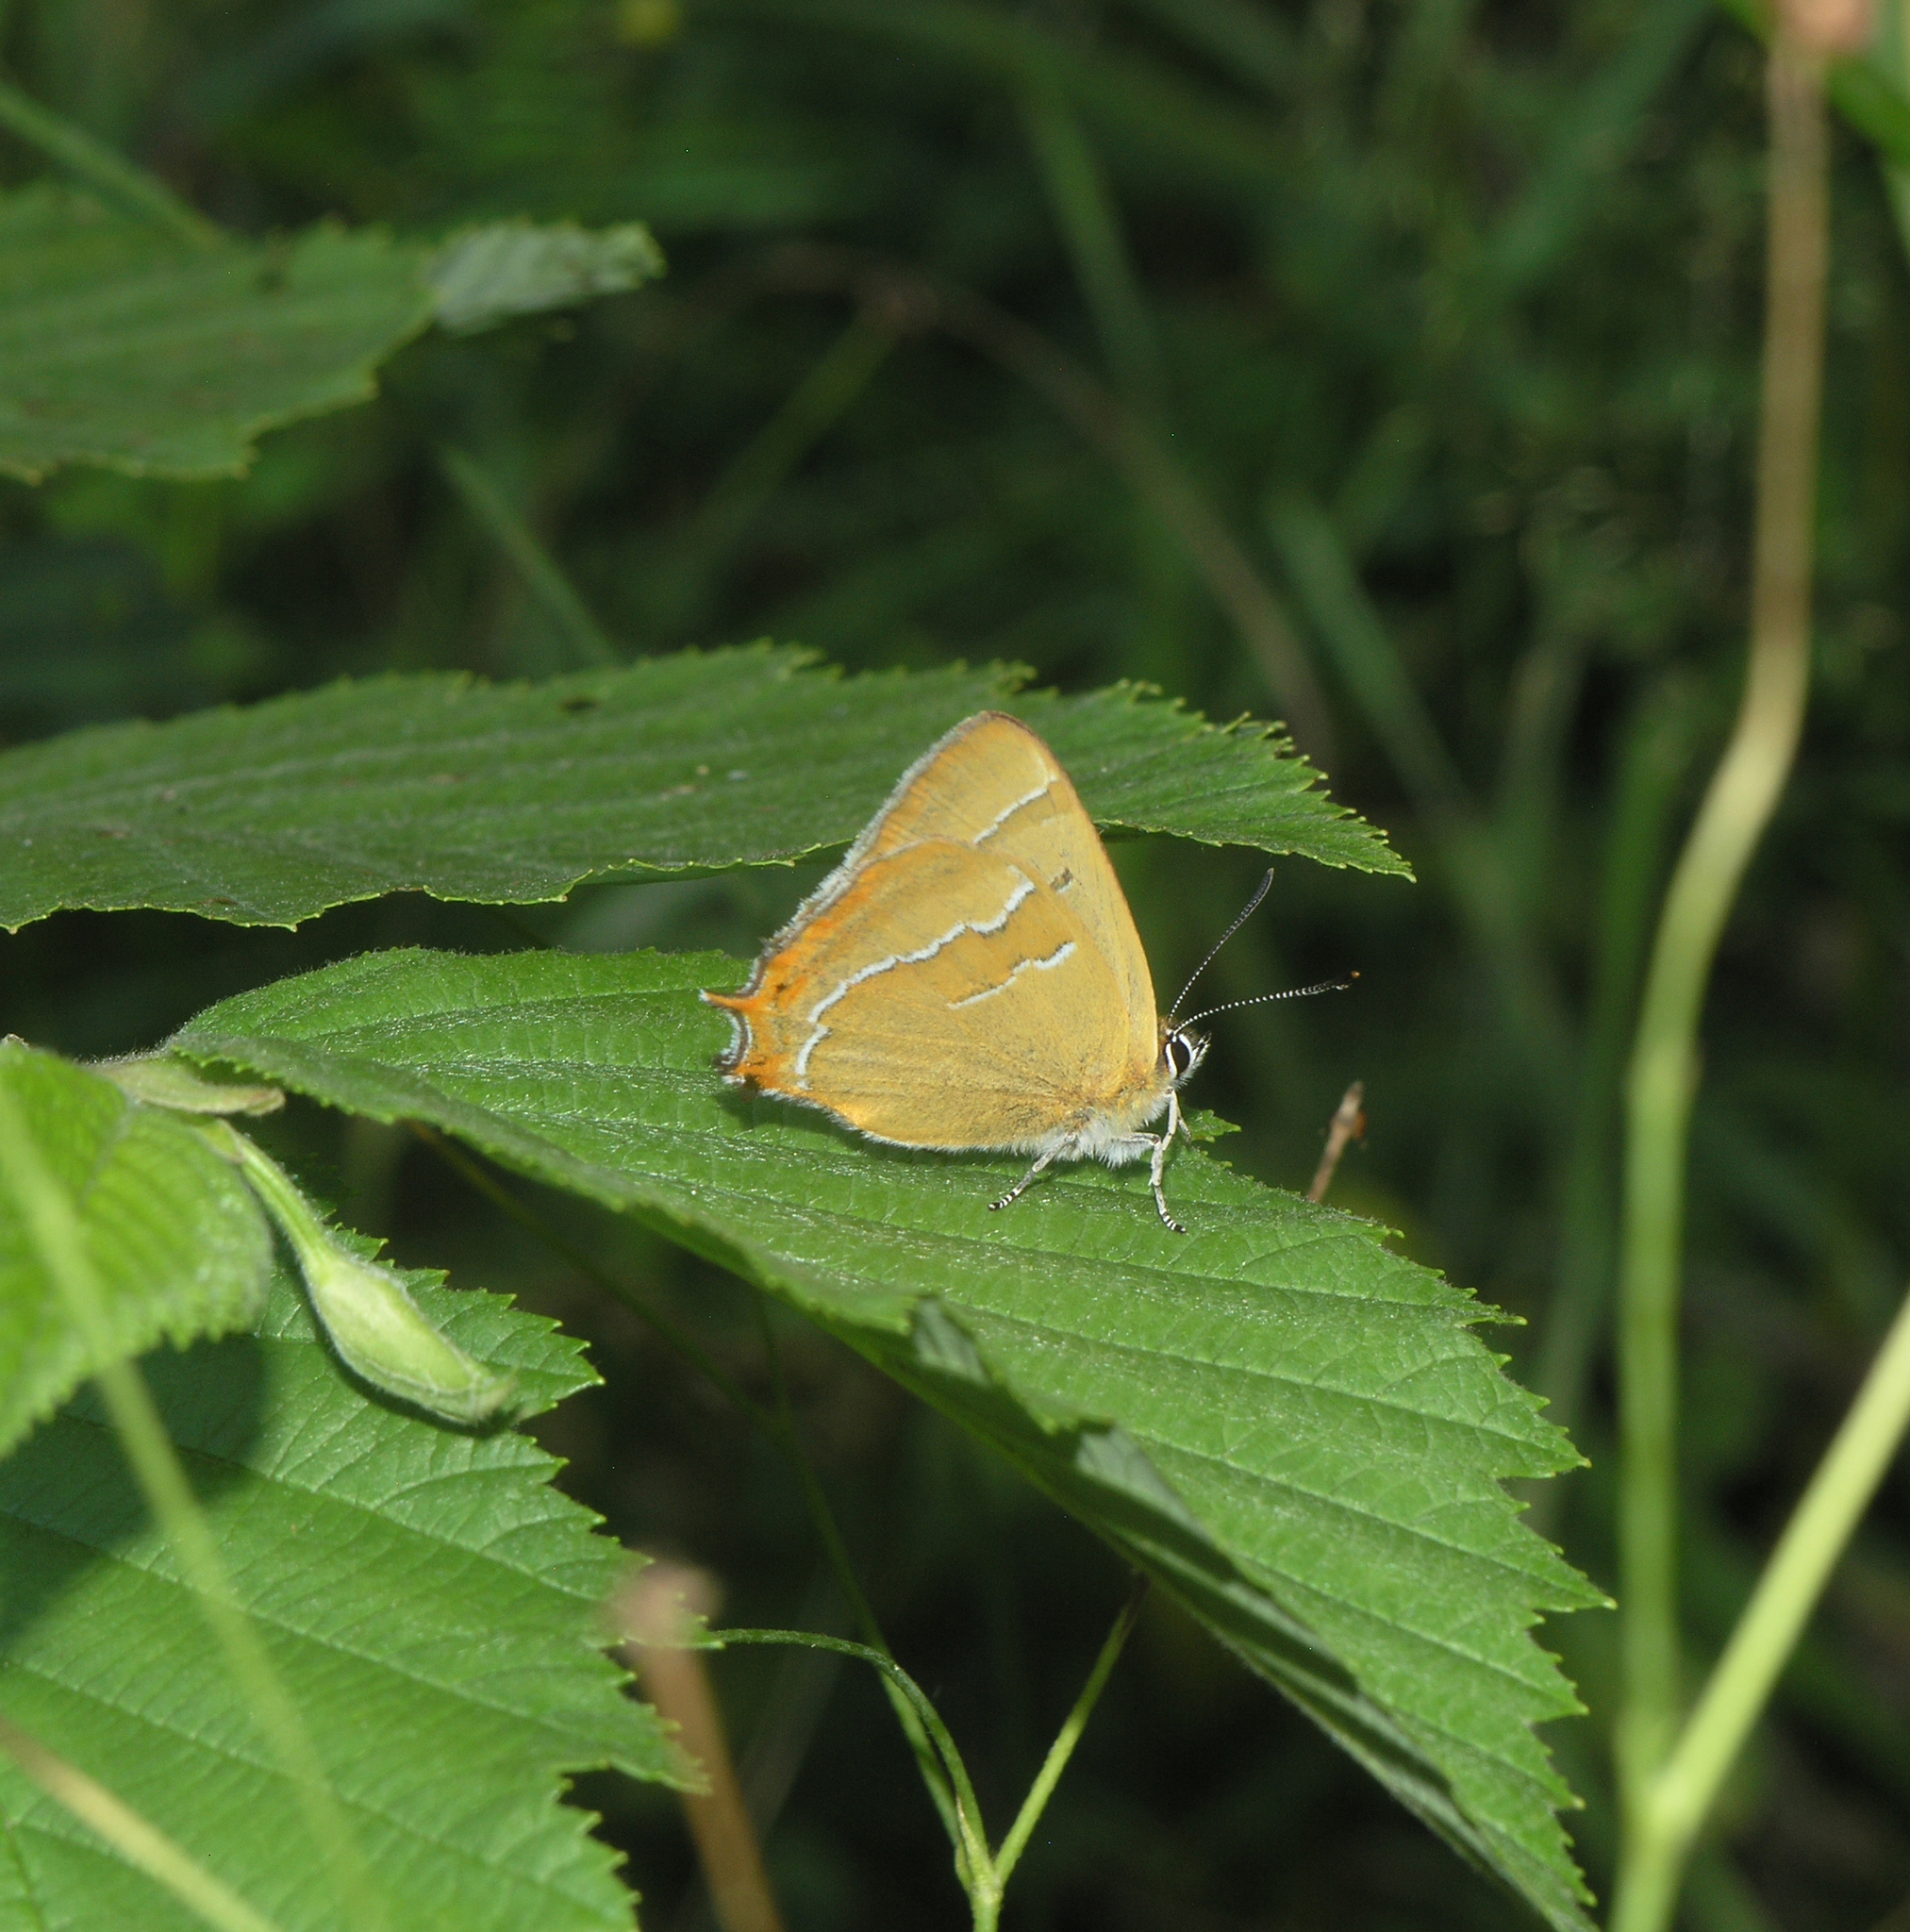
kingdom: Animalia
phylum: Arthropoda
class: Insecta
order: Lepidoptera
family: Lycaenidae
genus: Thecla
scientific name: Thecla betulae
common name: Brown hairstreak
